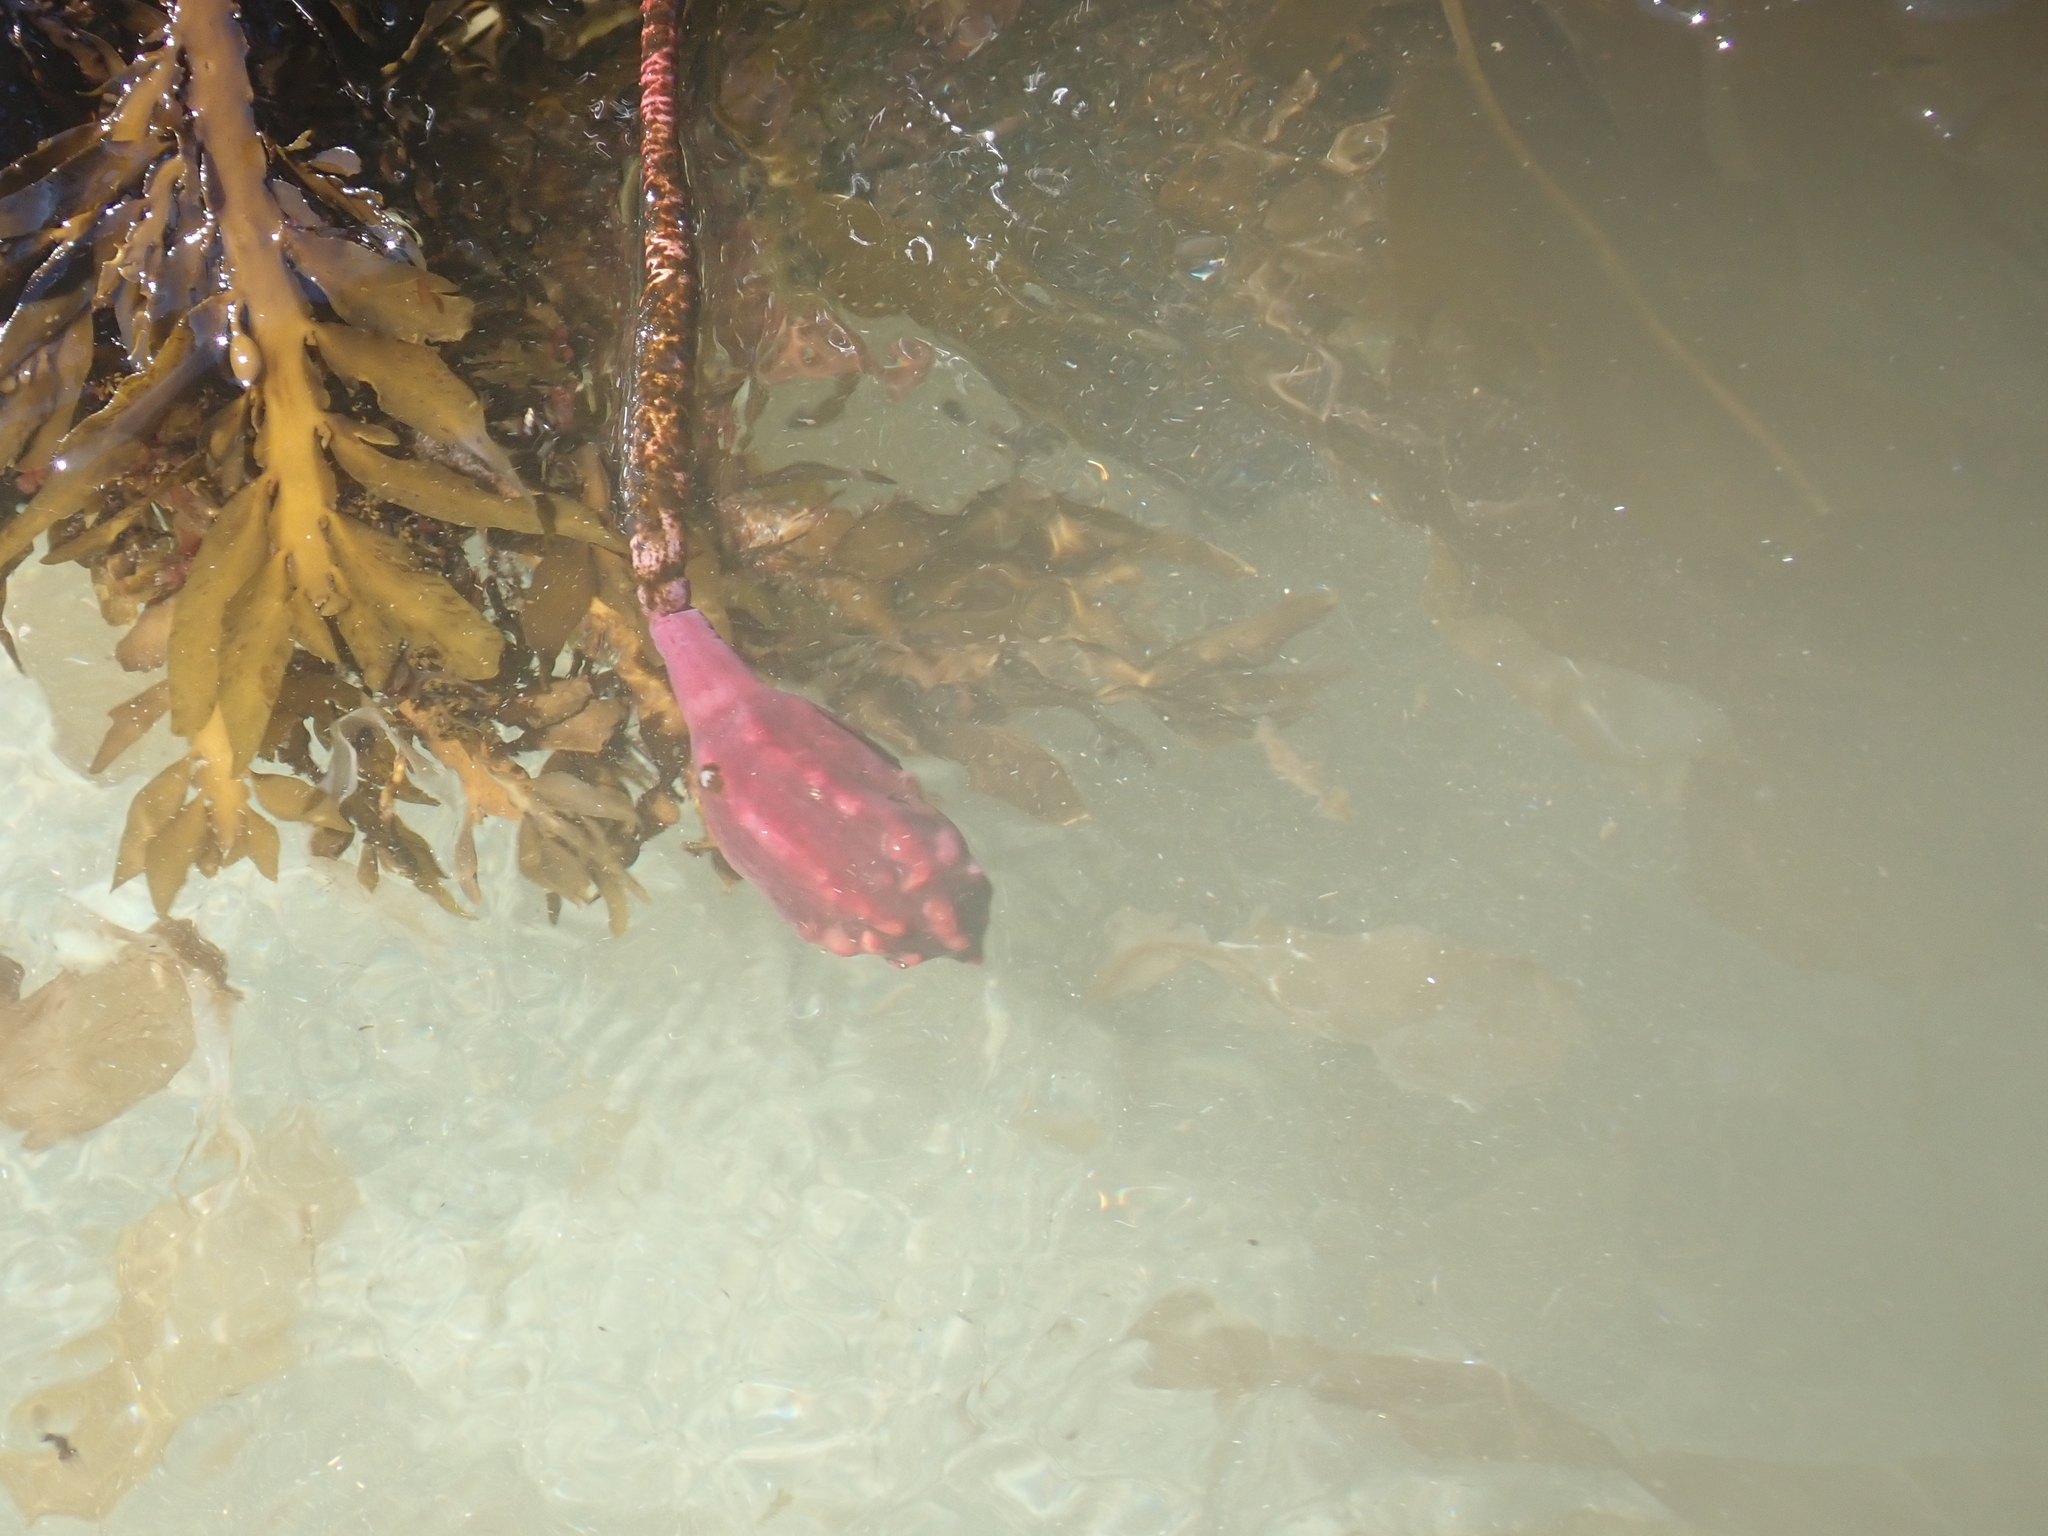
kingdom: Animalia
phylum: Chordata
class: Ascidiacea
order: Stolidobranchia
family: Pyuridae
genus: Pyura
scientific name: Pyura pachydermatina
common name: Sea tulip
